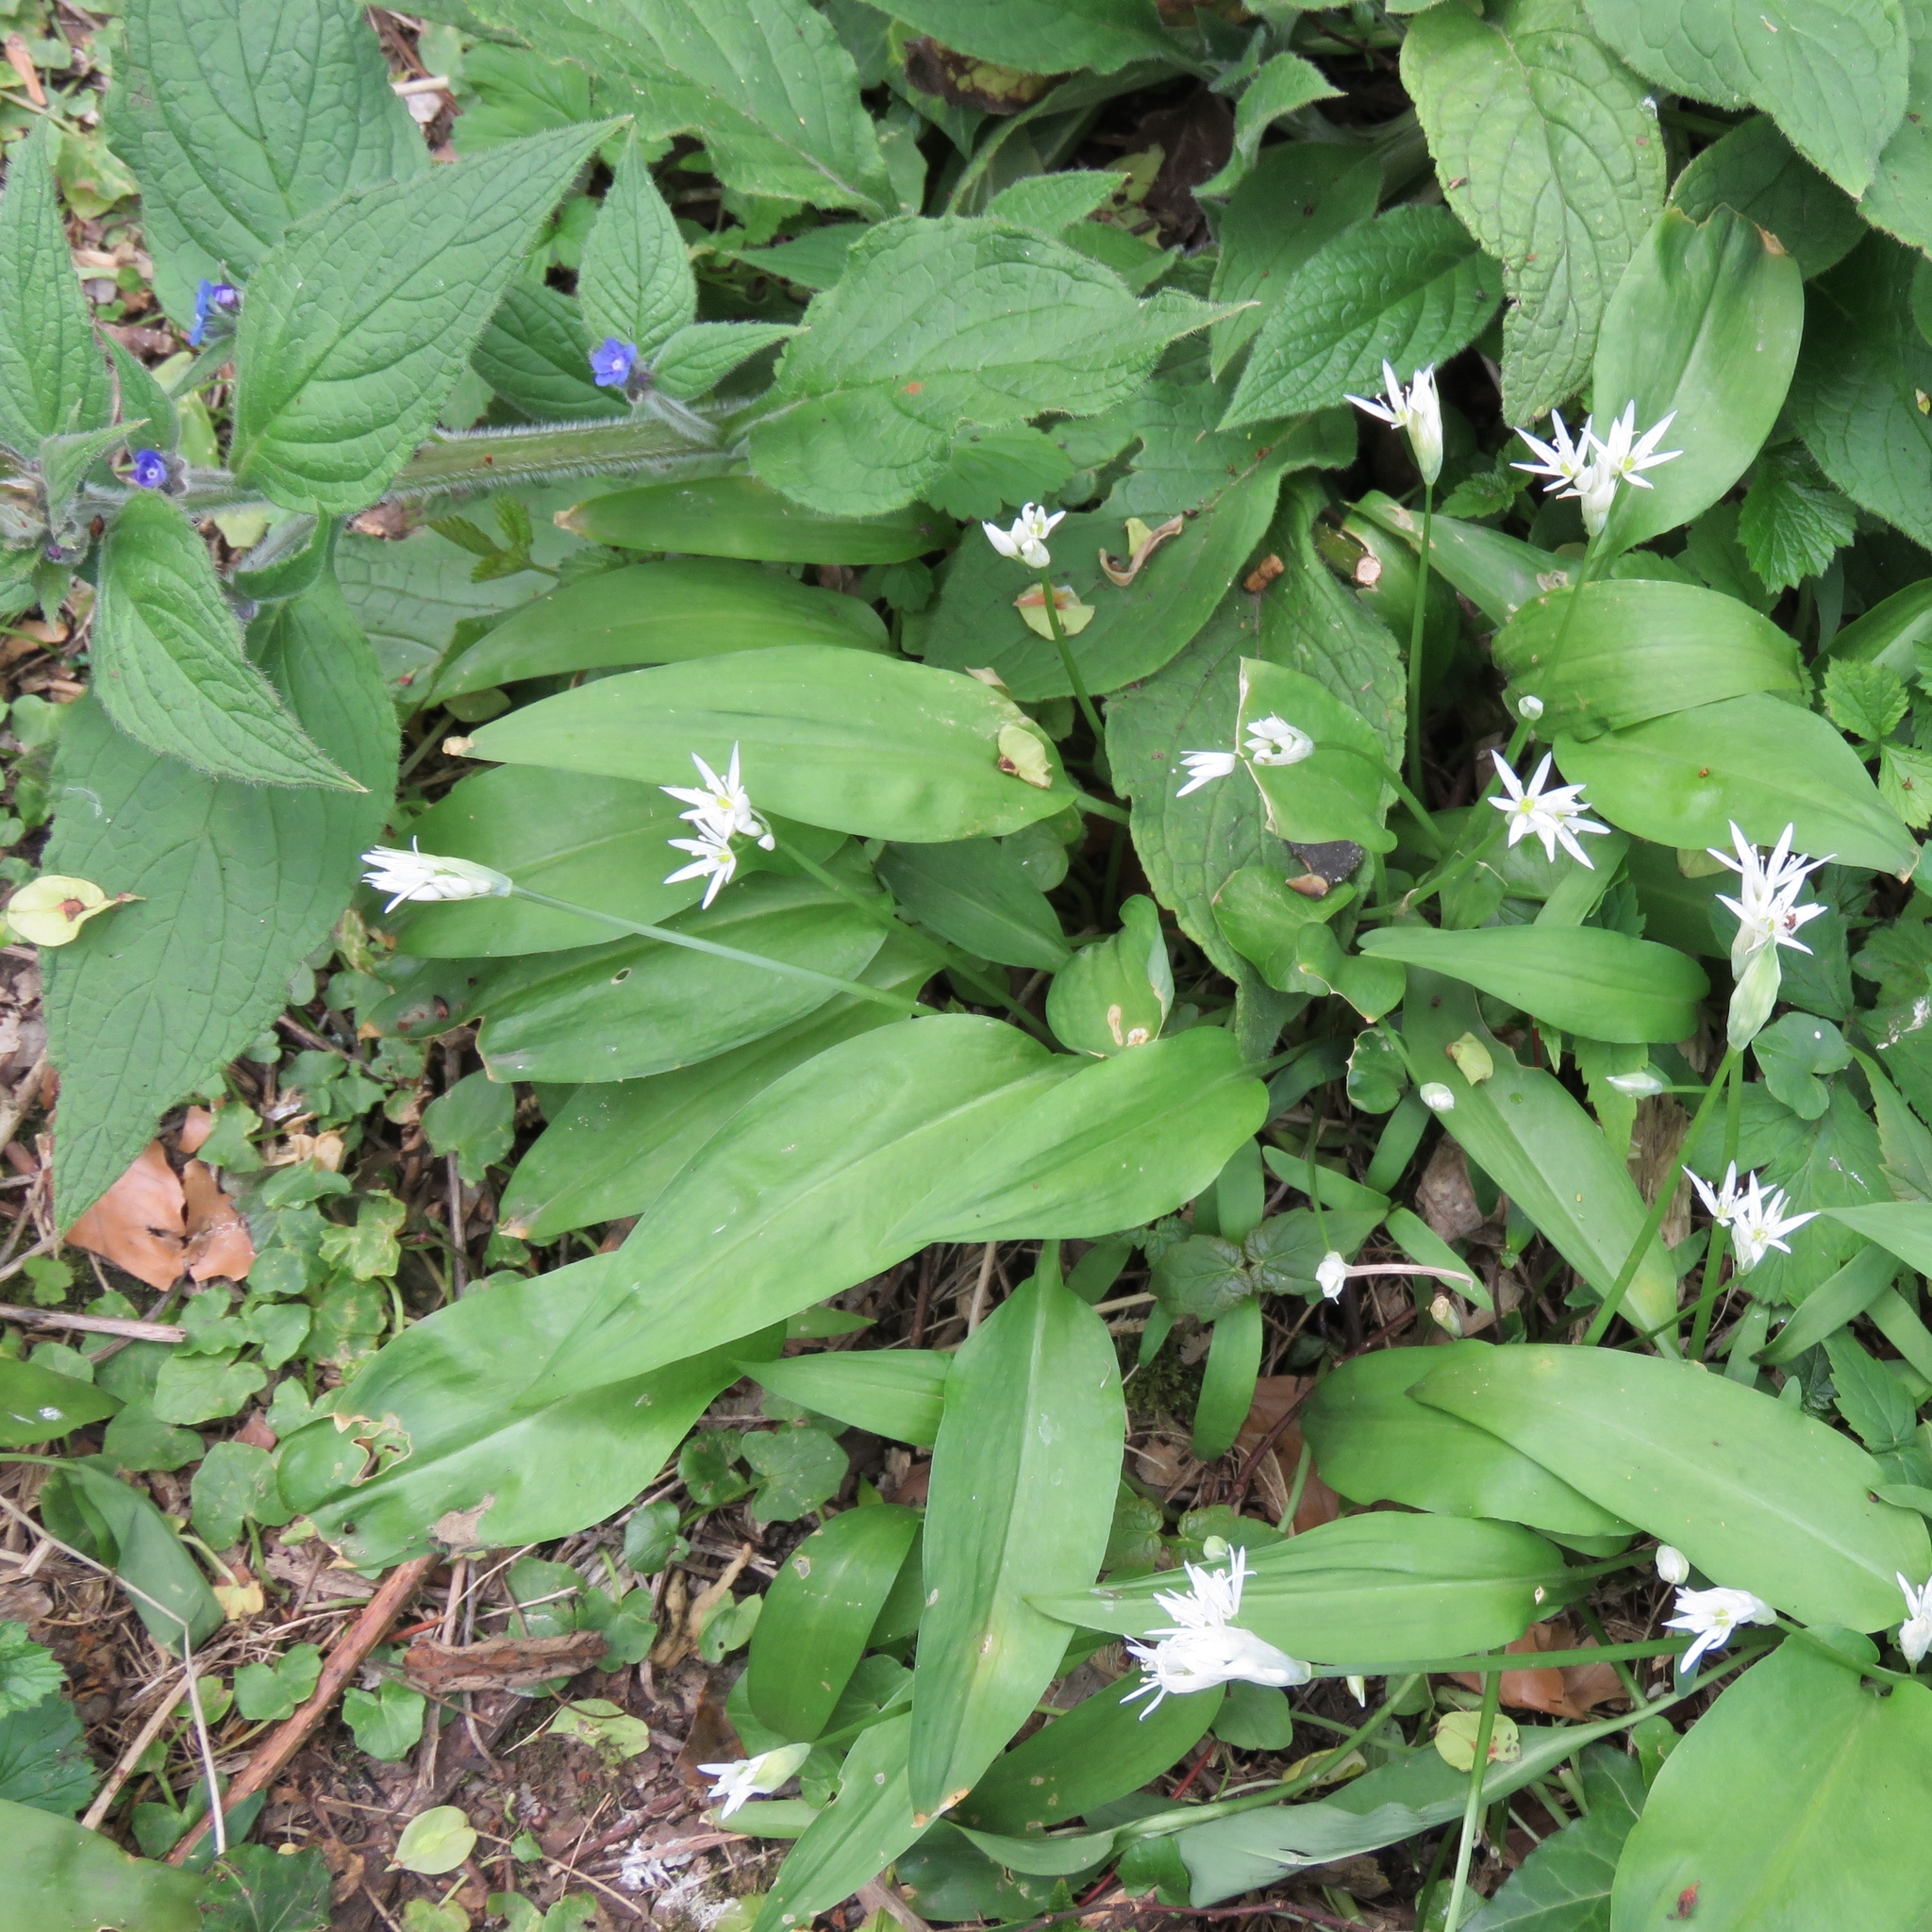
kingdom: Plantae
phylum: Tracheophyta
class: Liliopsida
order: Asparagales
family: Amaryllidaceae
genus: Allium
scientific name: Allium ursinum
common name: Ramsons
